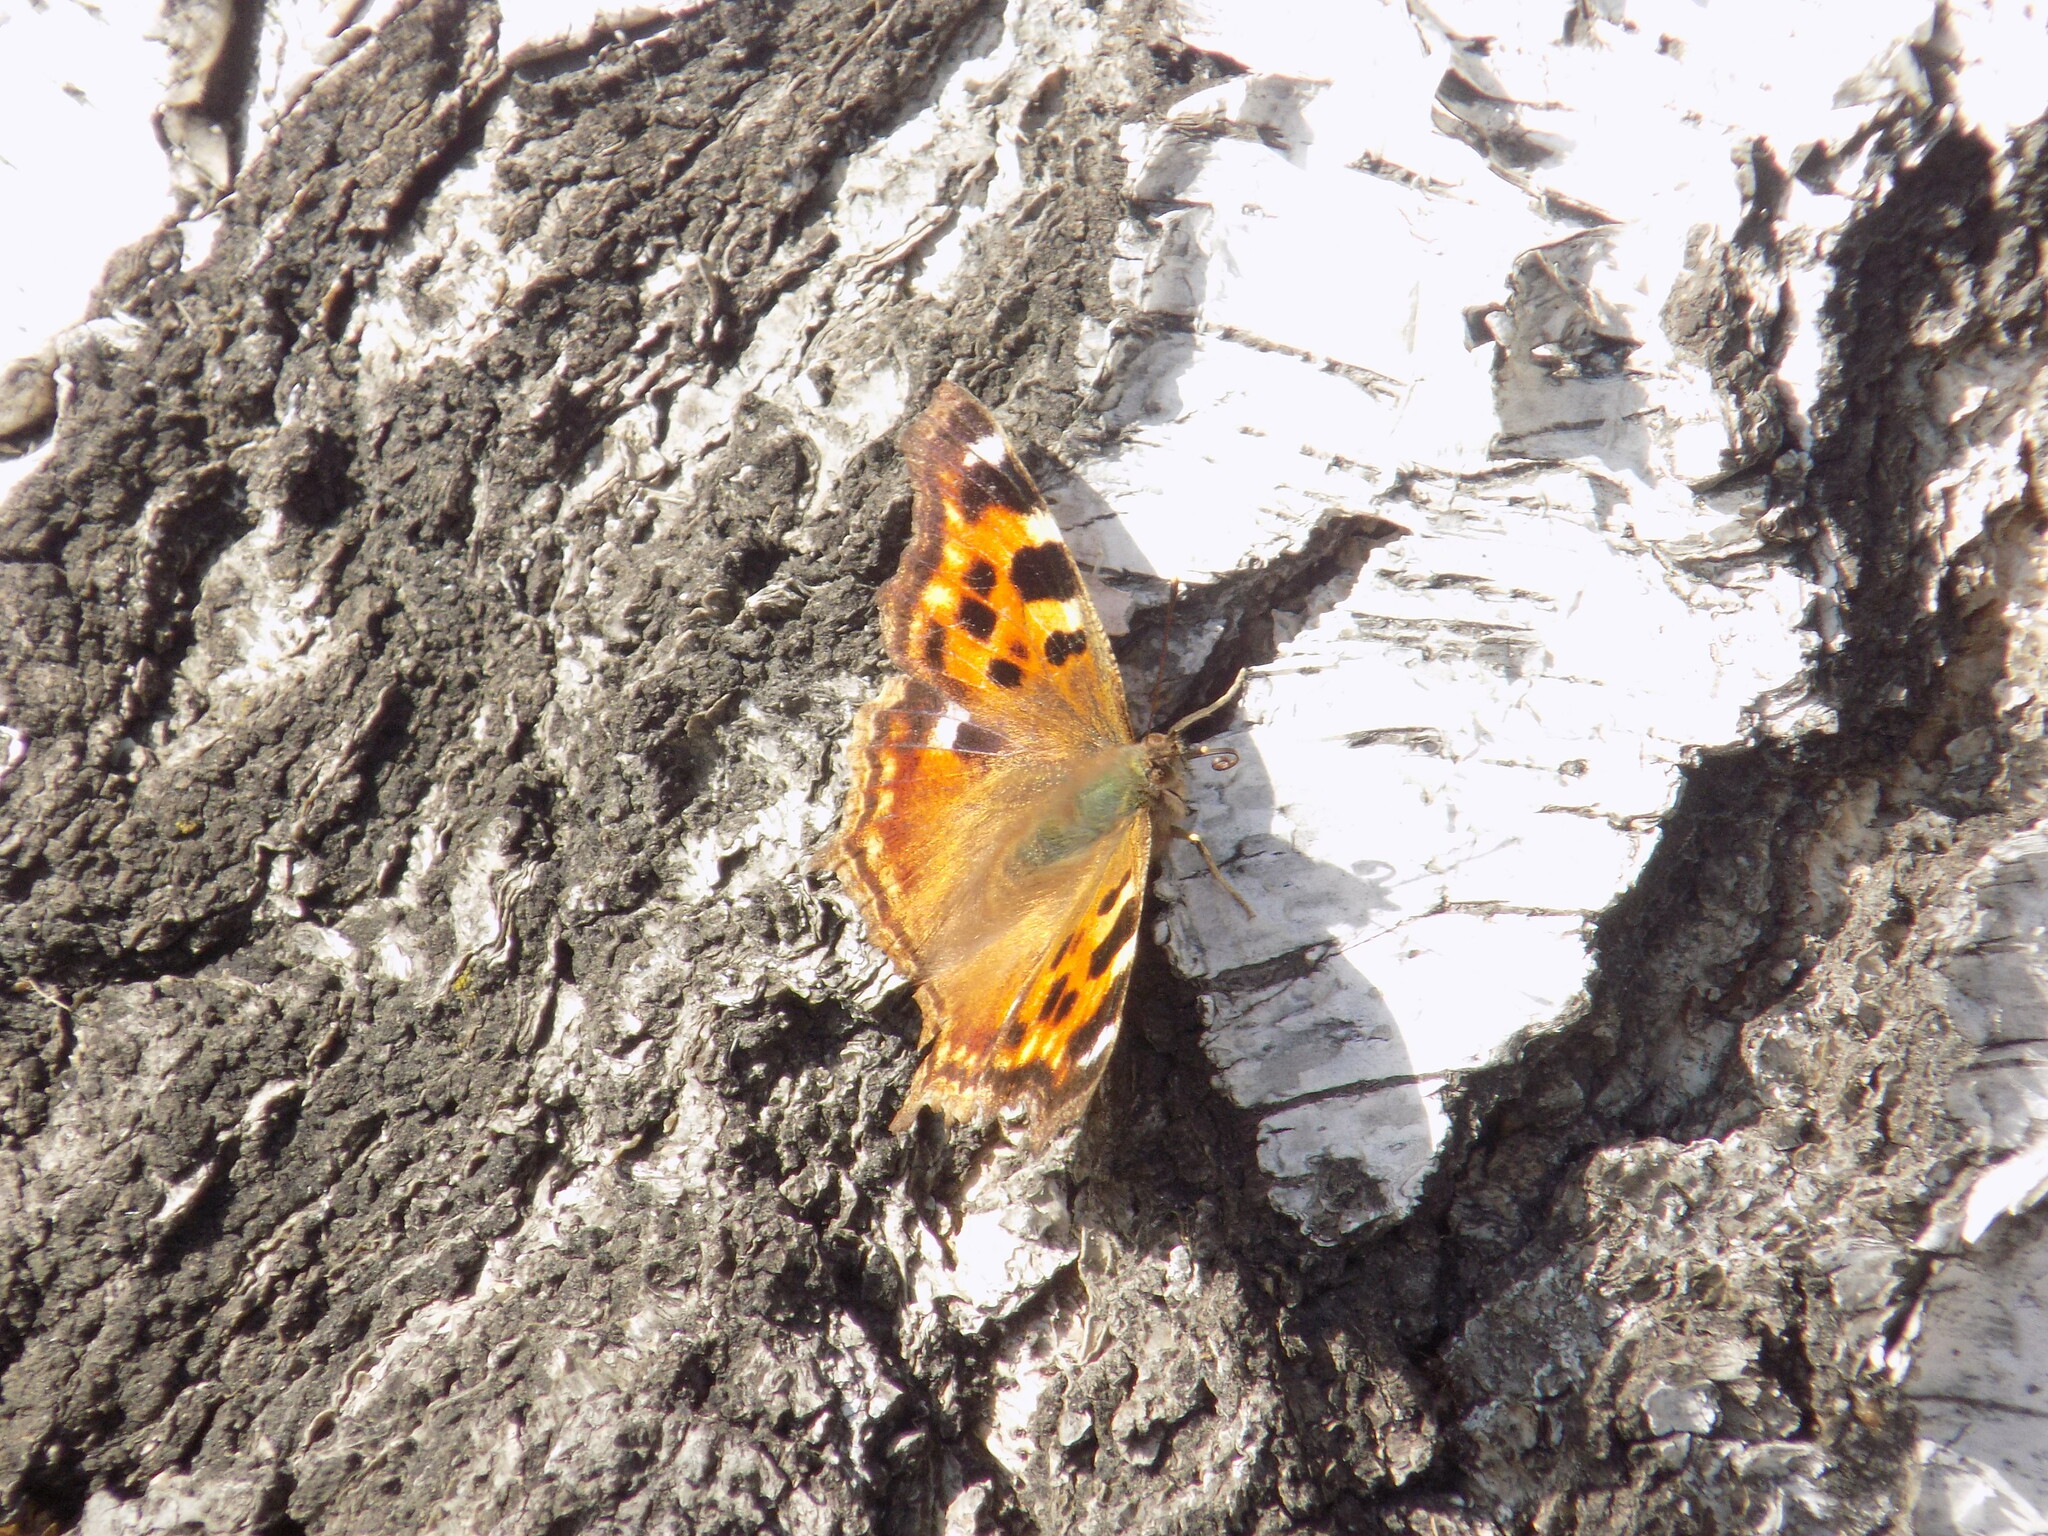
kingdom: Animalia
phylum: Arthropoda
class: Insecta
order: Lepidoptera
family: Nymphalidae
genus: Polygonia
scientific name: Polygonia vaualbum
